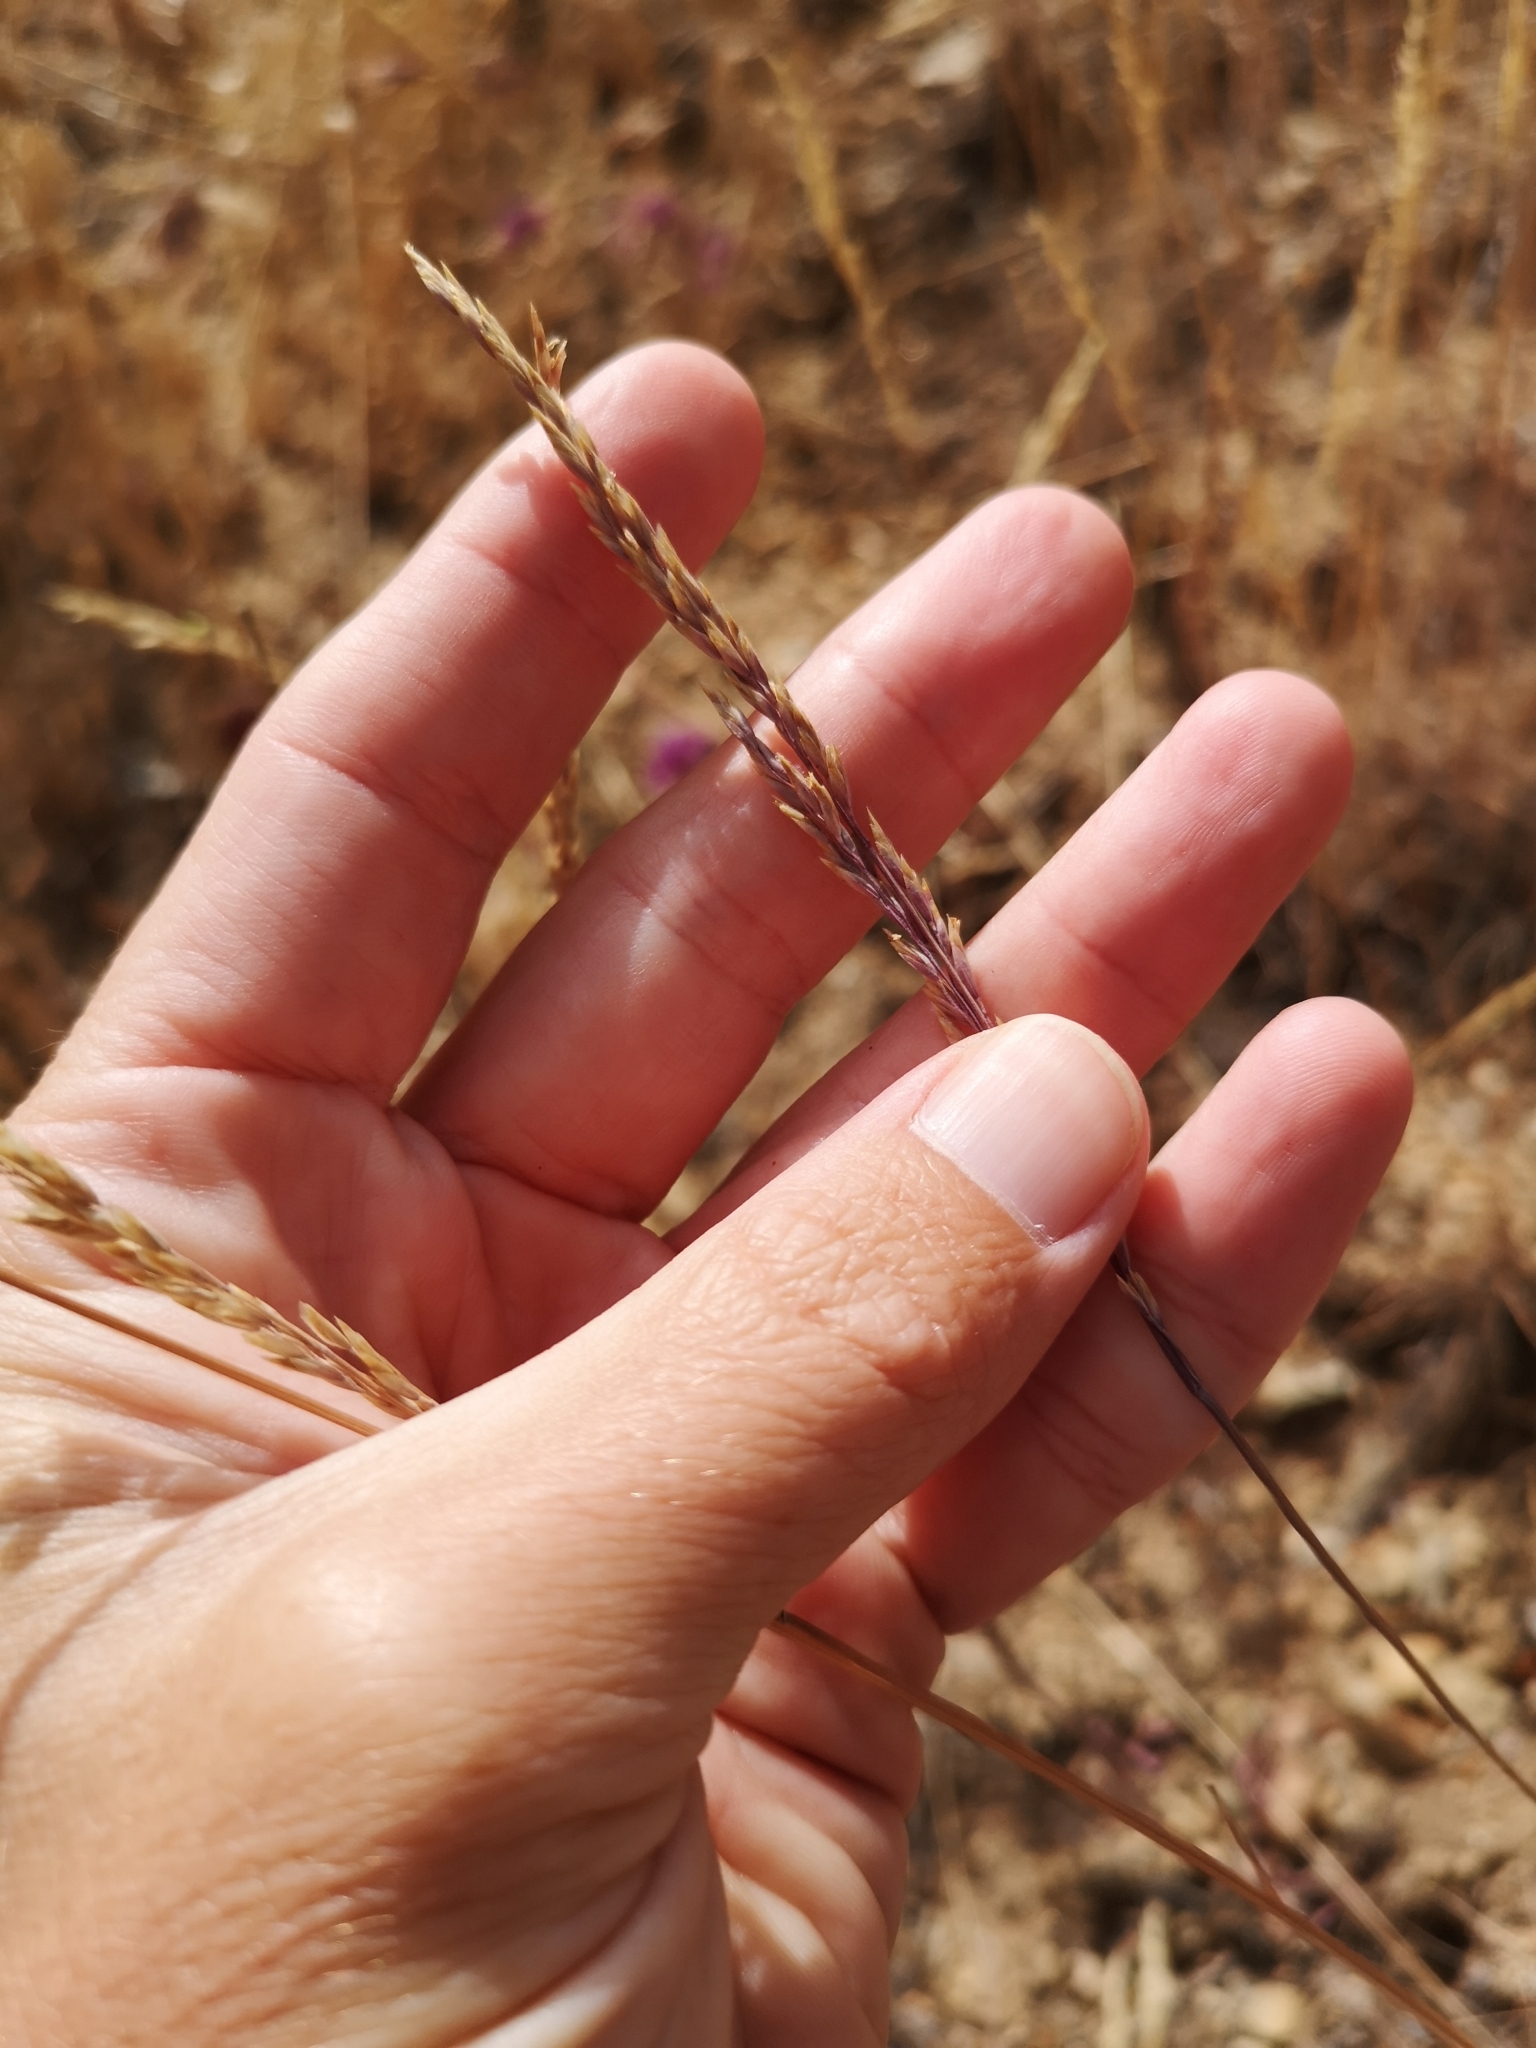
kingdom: Plantae
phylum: Tracheophyta
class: Liliopsida
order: Poales
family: Poaceae
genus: Poa
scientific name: Poa secunda
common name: Sandberg bluegrass
